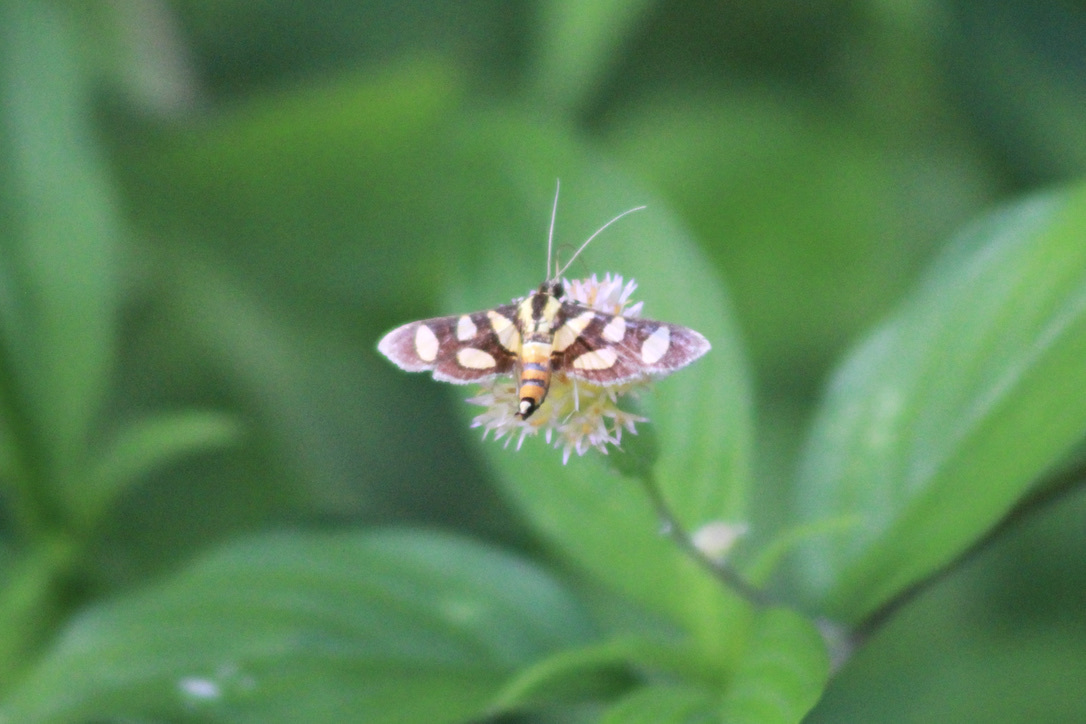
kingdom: Animalia
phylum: Arthropoda
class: Insecta
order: Lepidoptera
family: Crambidae
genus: Syngamia
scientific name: Syngamia florella
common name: Orange-spotted flower moth
